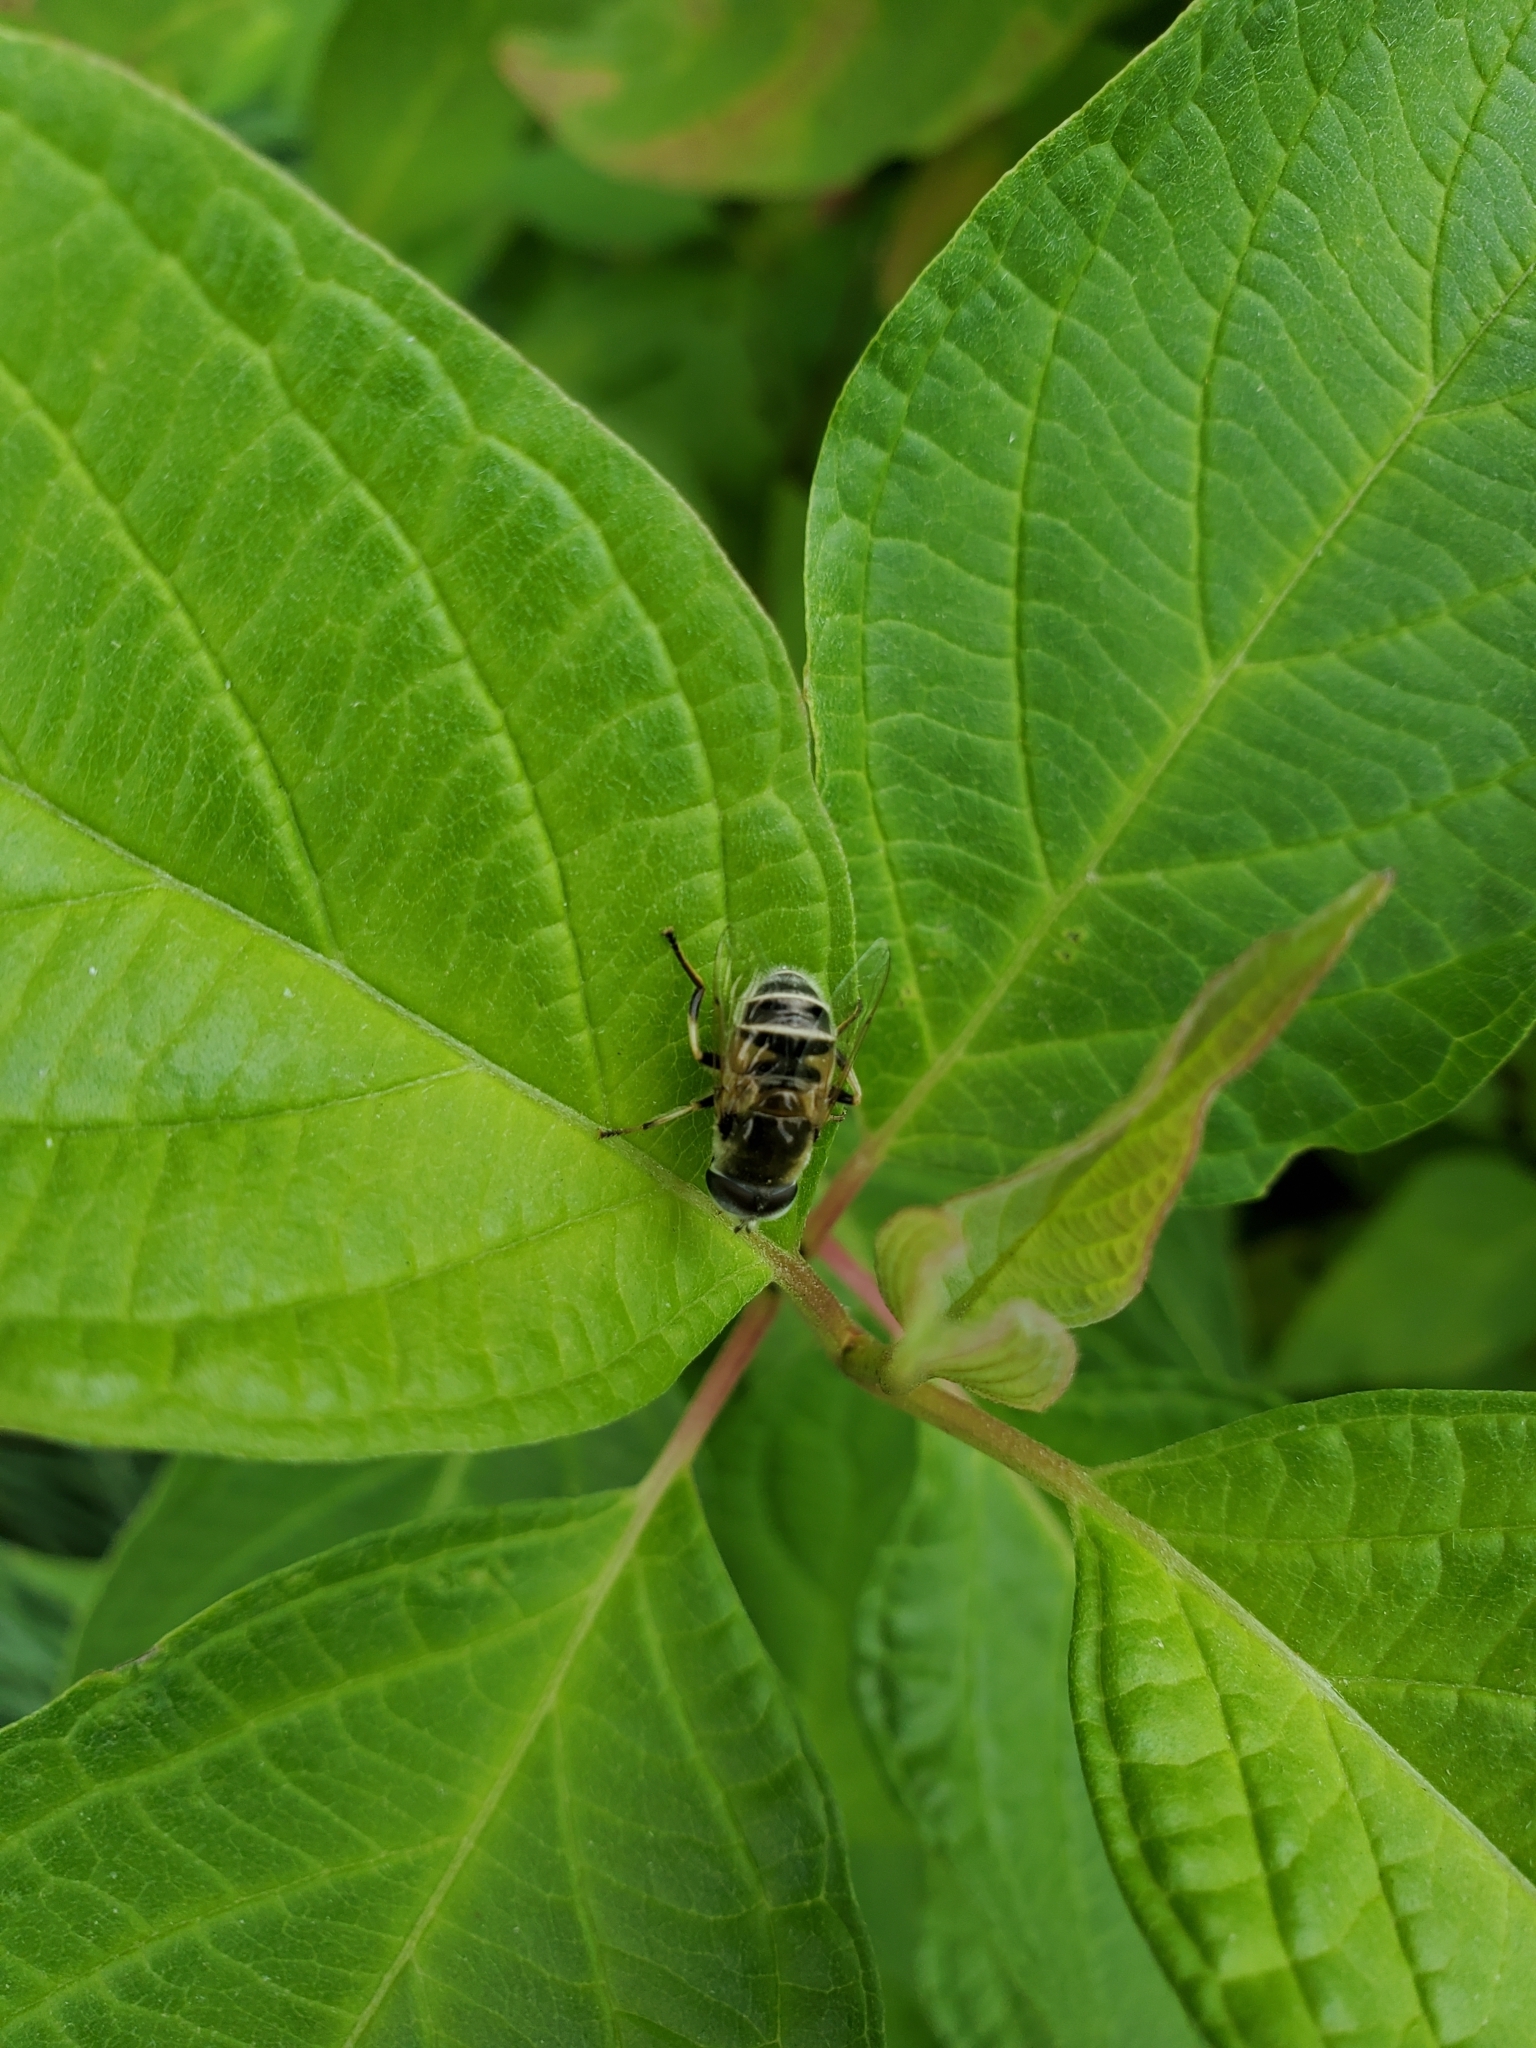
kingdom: Animalia
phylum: Arthropoda
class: Insecta
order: Diptera
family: Syrphidae
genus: Eristalis
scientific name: Eristalis stipator
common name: Yellow-shouldered drone fly
